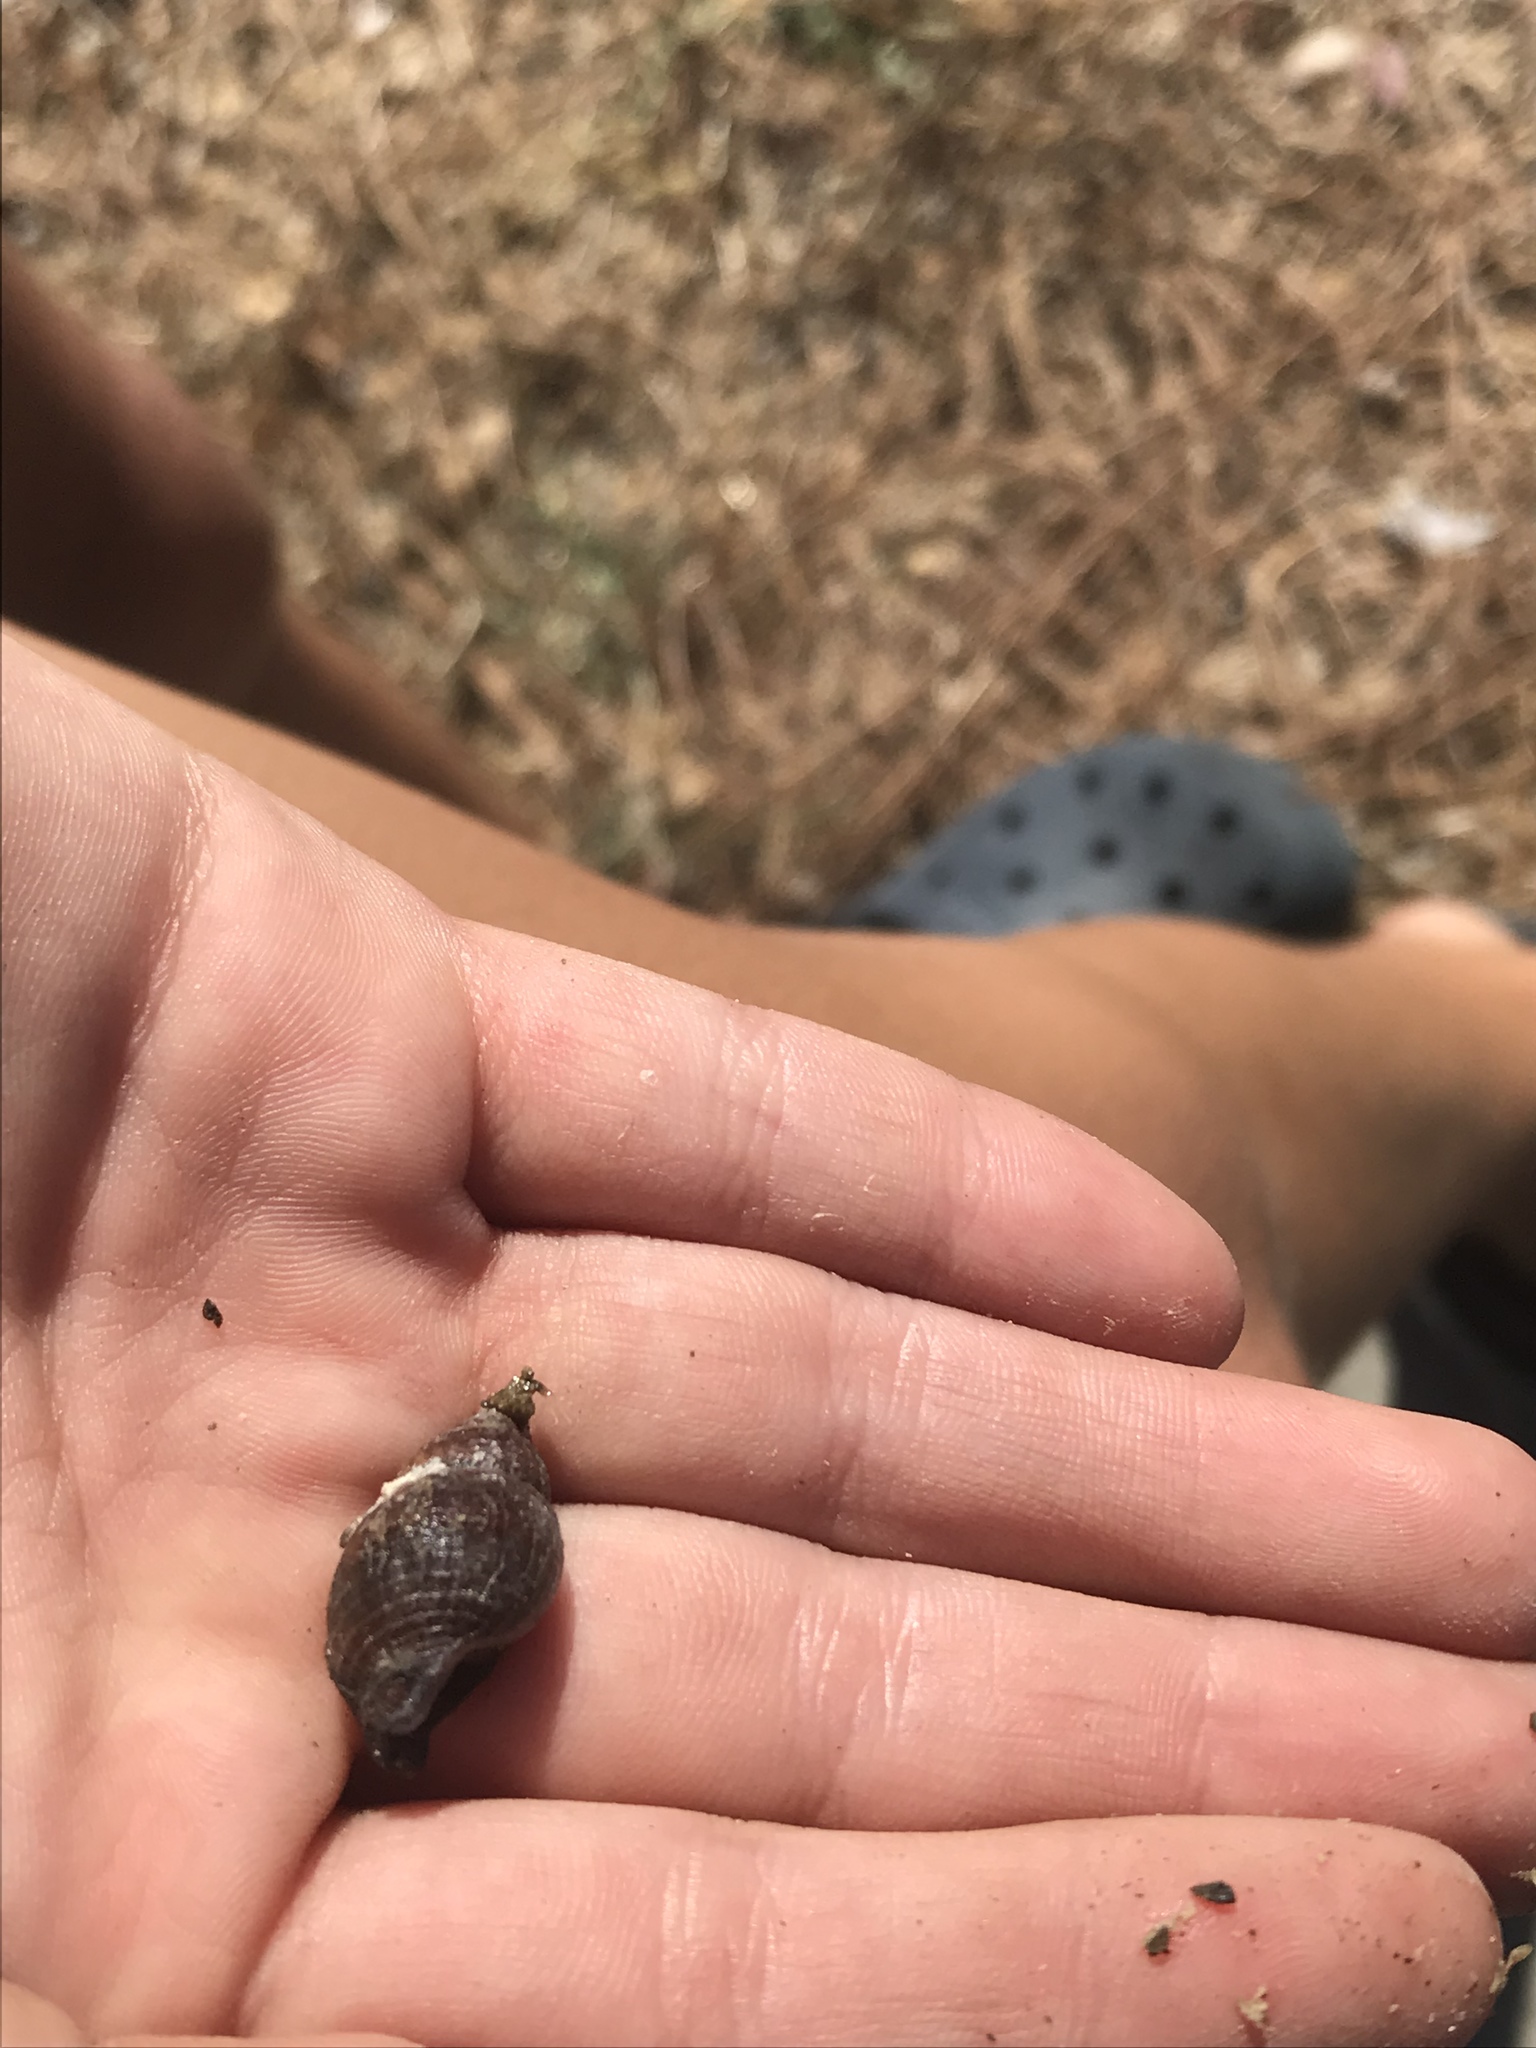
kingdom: Animalia
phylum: Mollusca
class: Gastropoda
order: Neogastropoda
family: Nassariidae
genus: Ilyanassa
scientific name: Ilyanassa obsoleta
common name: Eastern mudsnail
